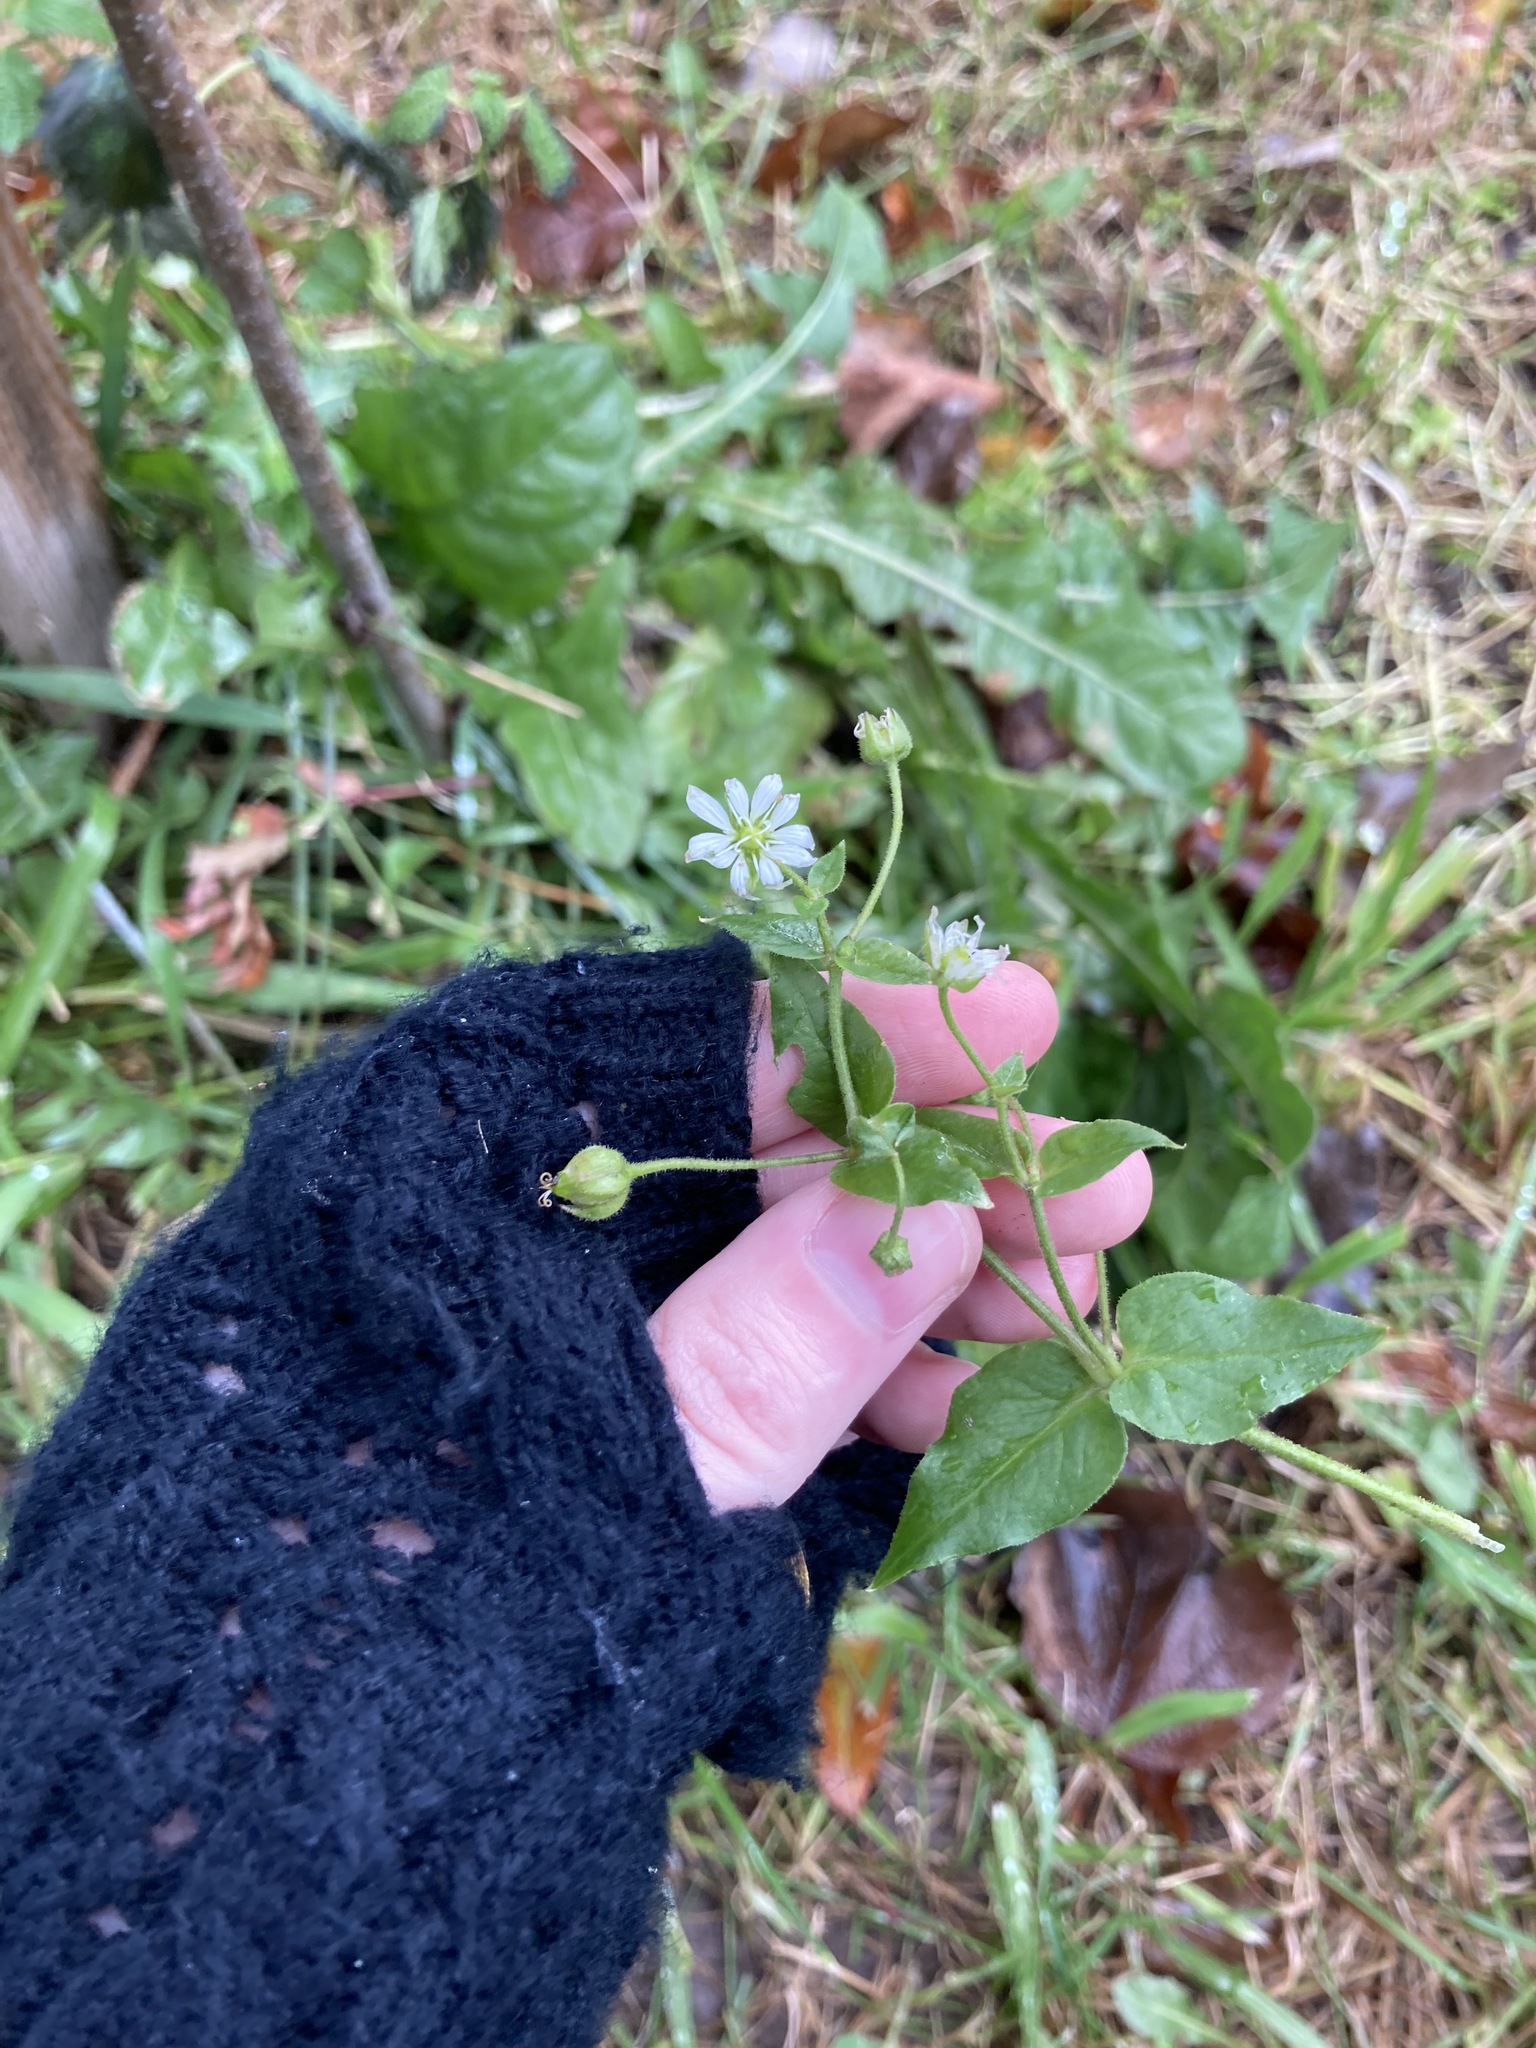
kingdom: Plantae
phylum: Tracheophyta
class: Magnoliopsida
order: Caryophyllales
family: Caryophyllaceae
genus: Stellaria
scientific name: Stellaria aquatica
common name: Water chickweed
